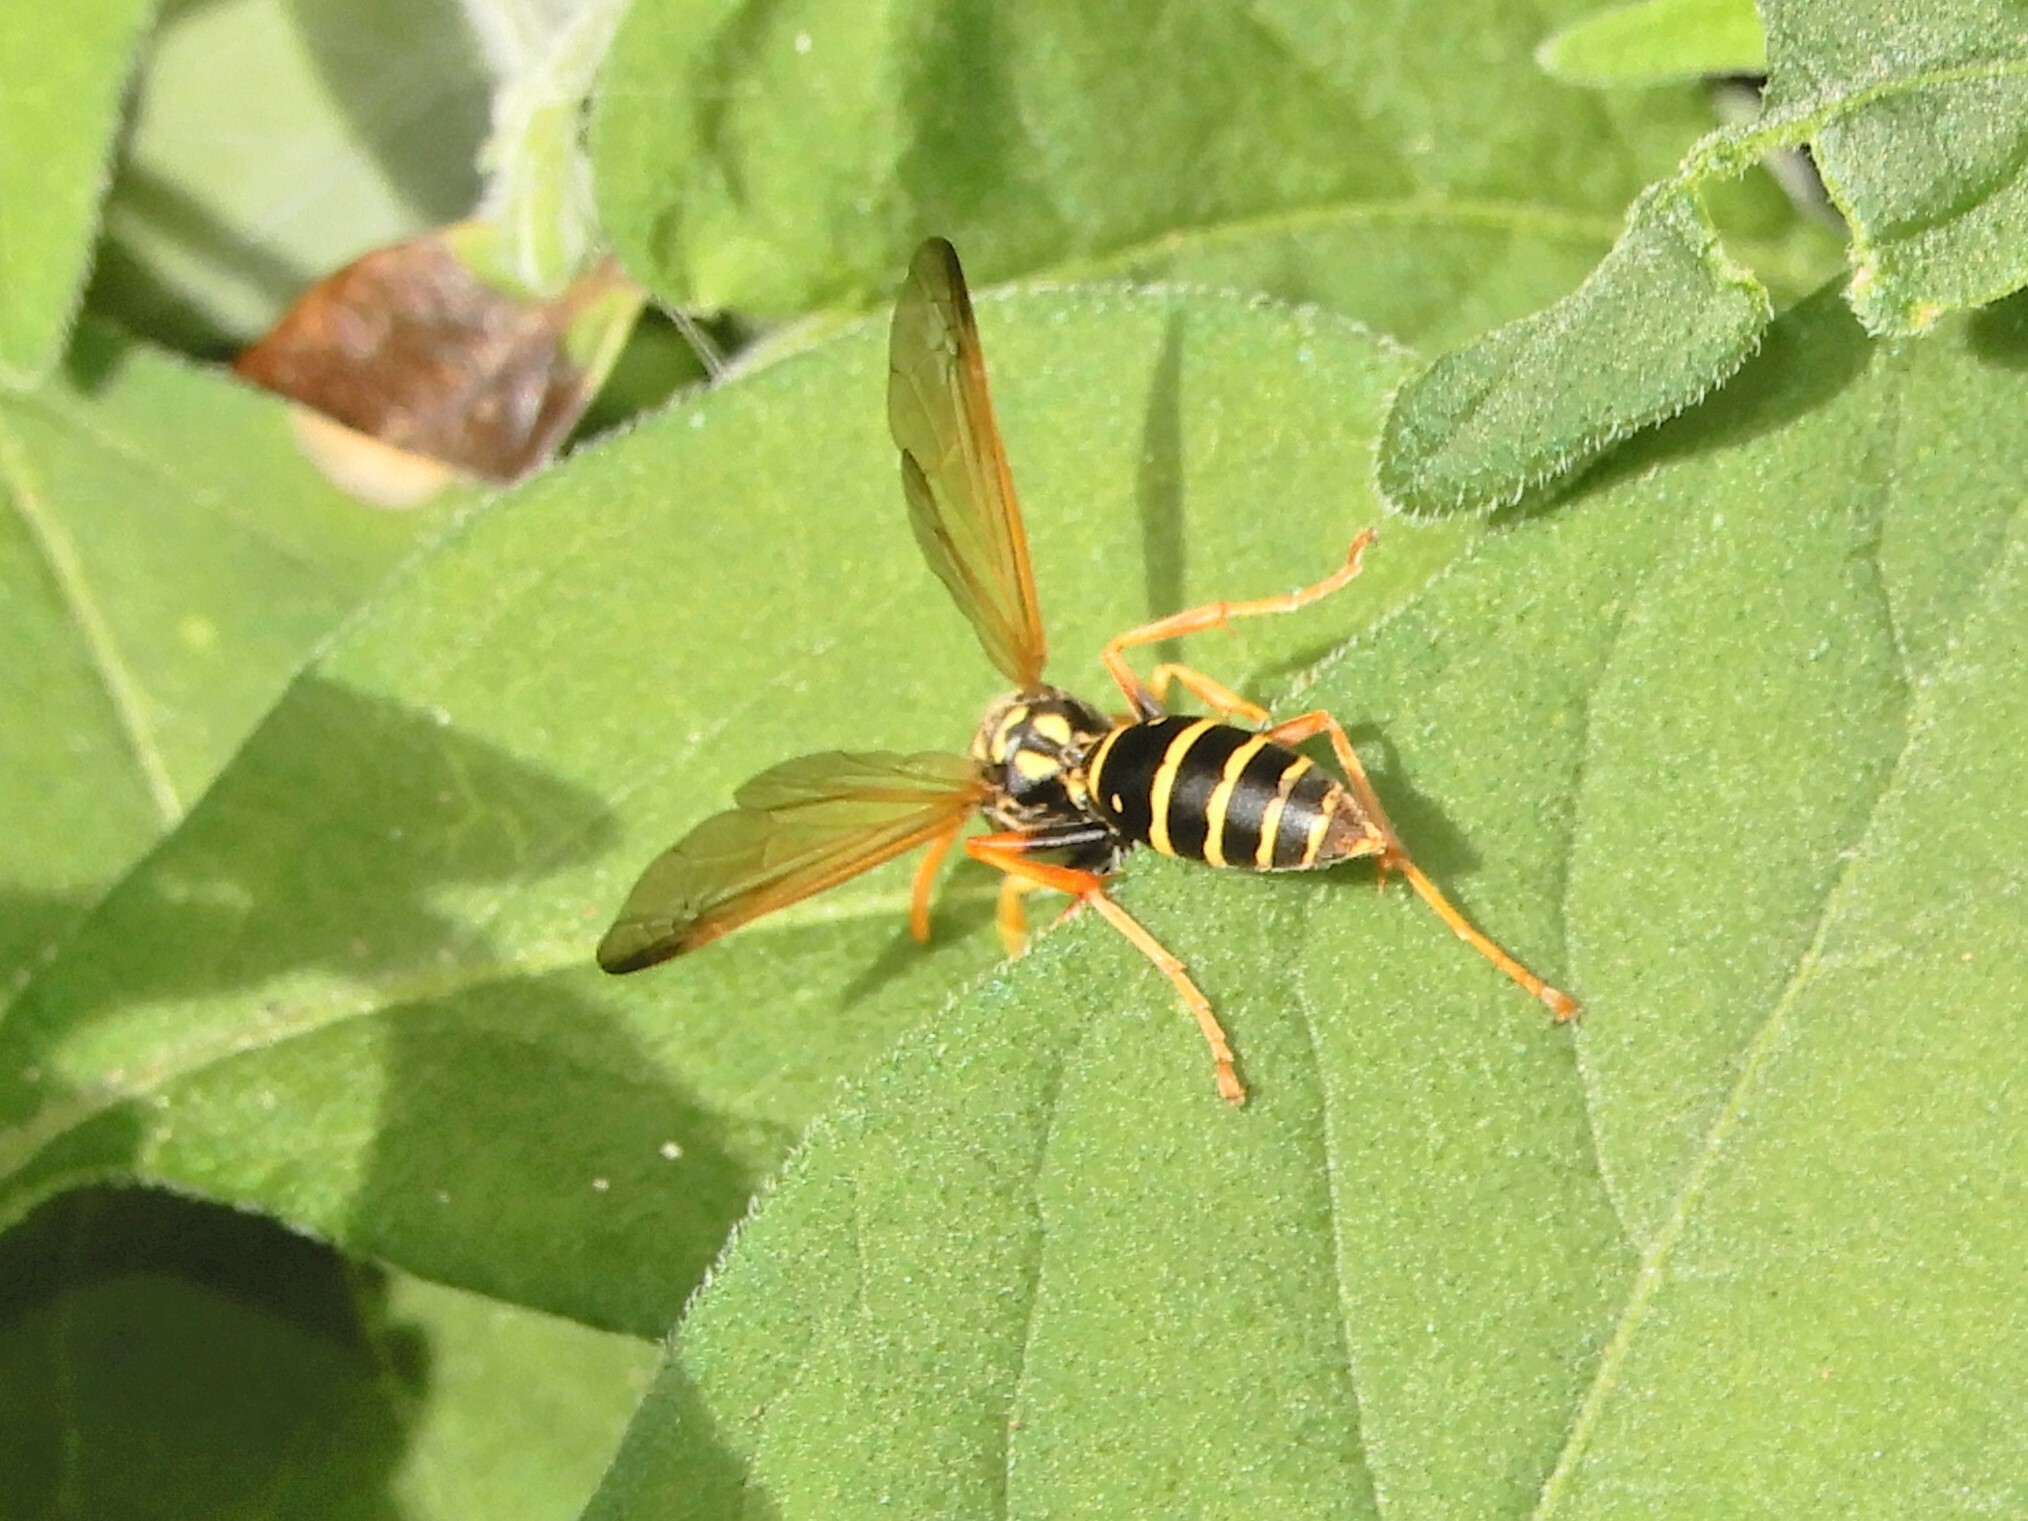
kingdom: Animalia
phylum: Arthropoda
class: Insecta
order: Hymenoptera
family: Eumenidae
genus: Polistes
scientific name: Polistes chinensis
